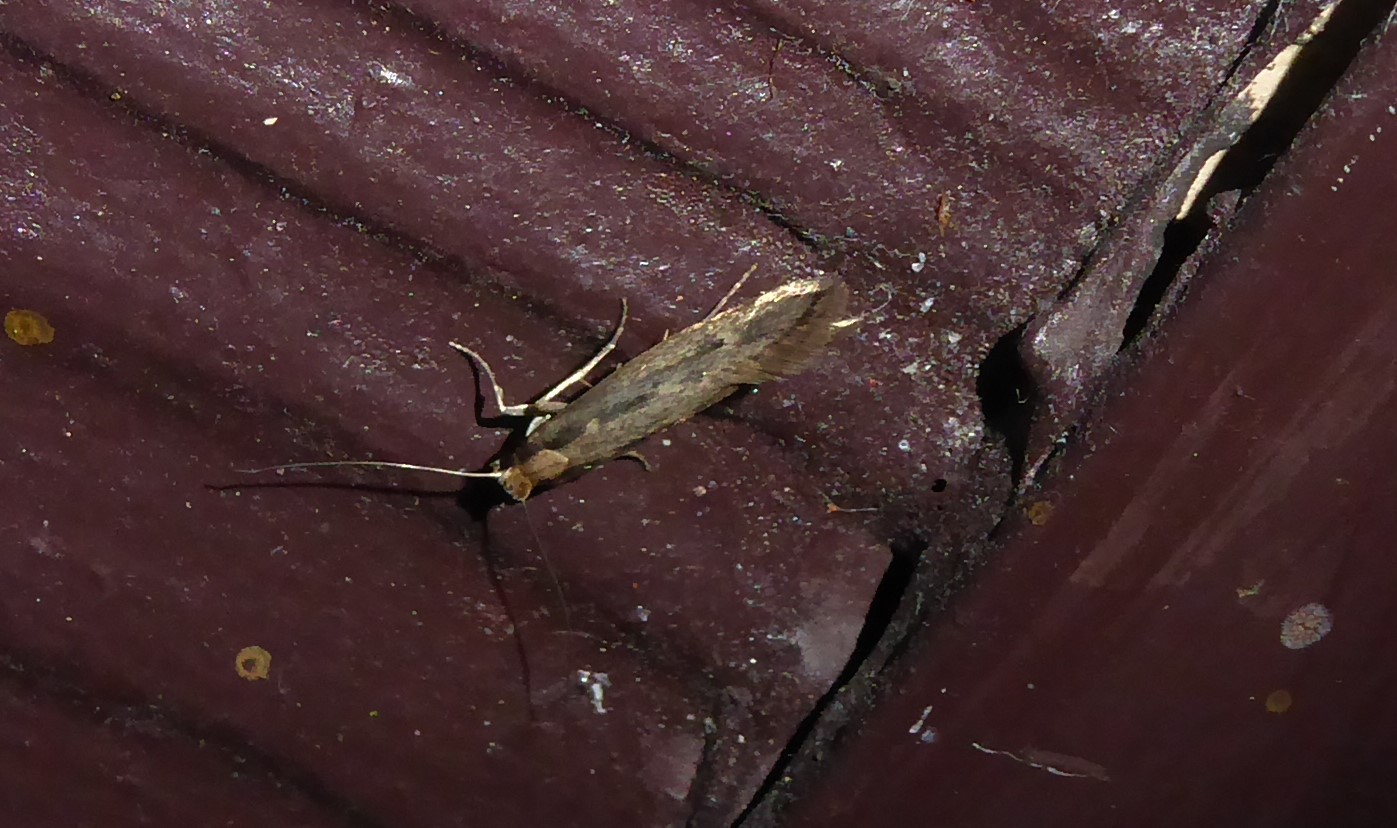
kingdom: Animalia
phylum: Arthropoda
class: Insecta
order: Lepidoptera
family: Tineidae
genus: Tinea
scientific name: Tinea pallescentella
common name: Large pale clothes moth
